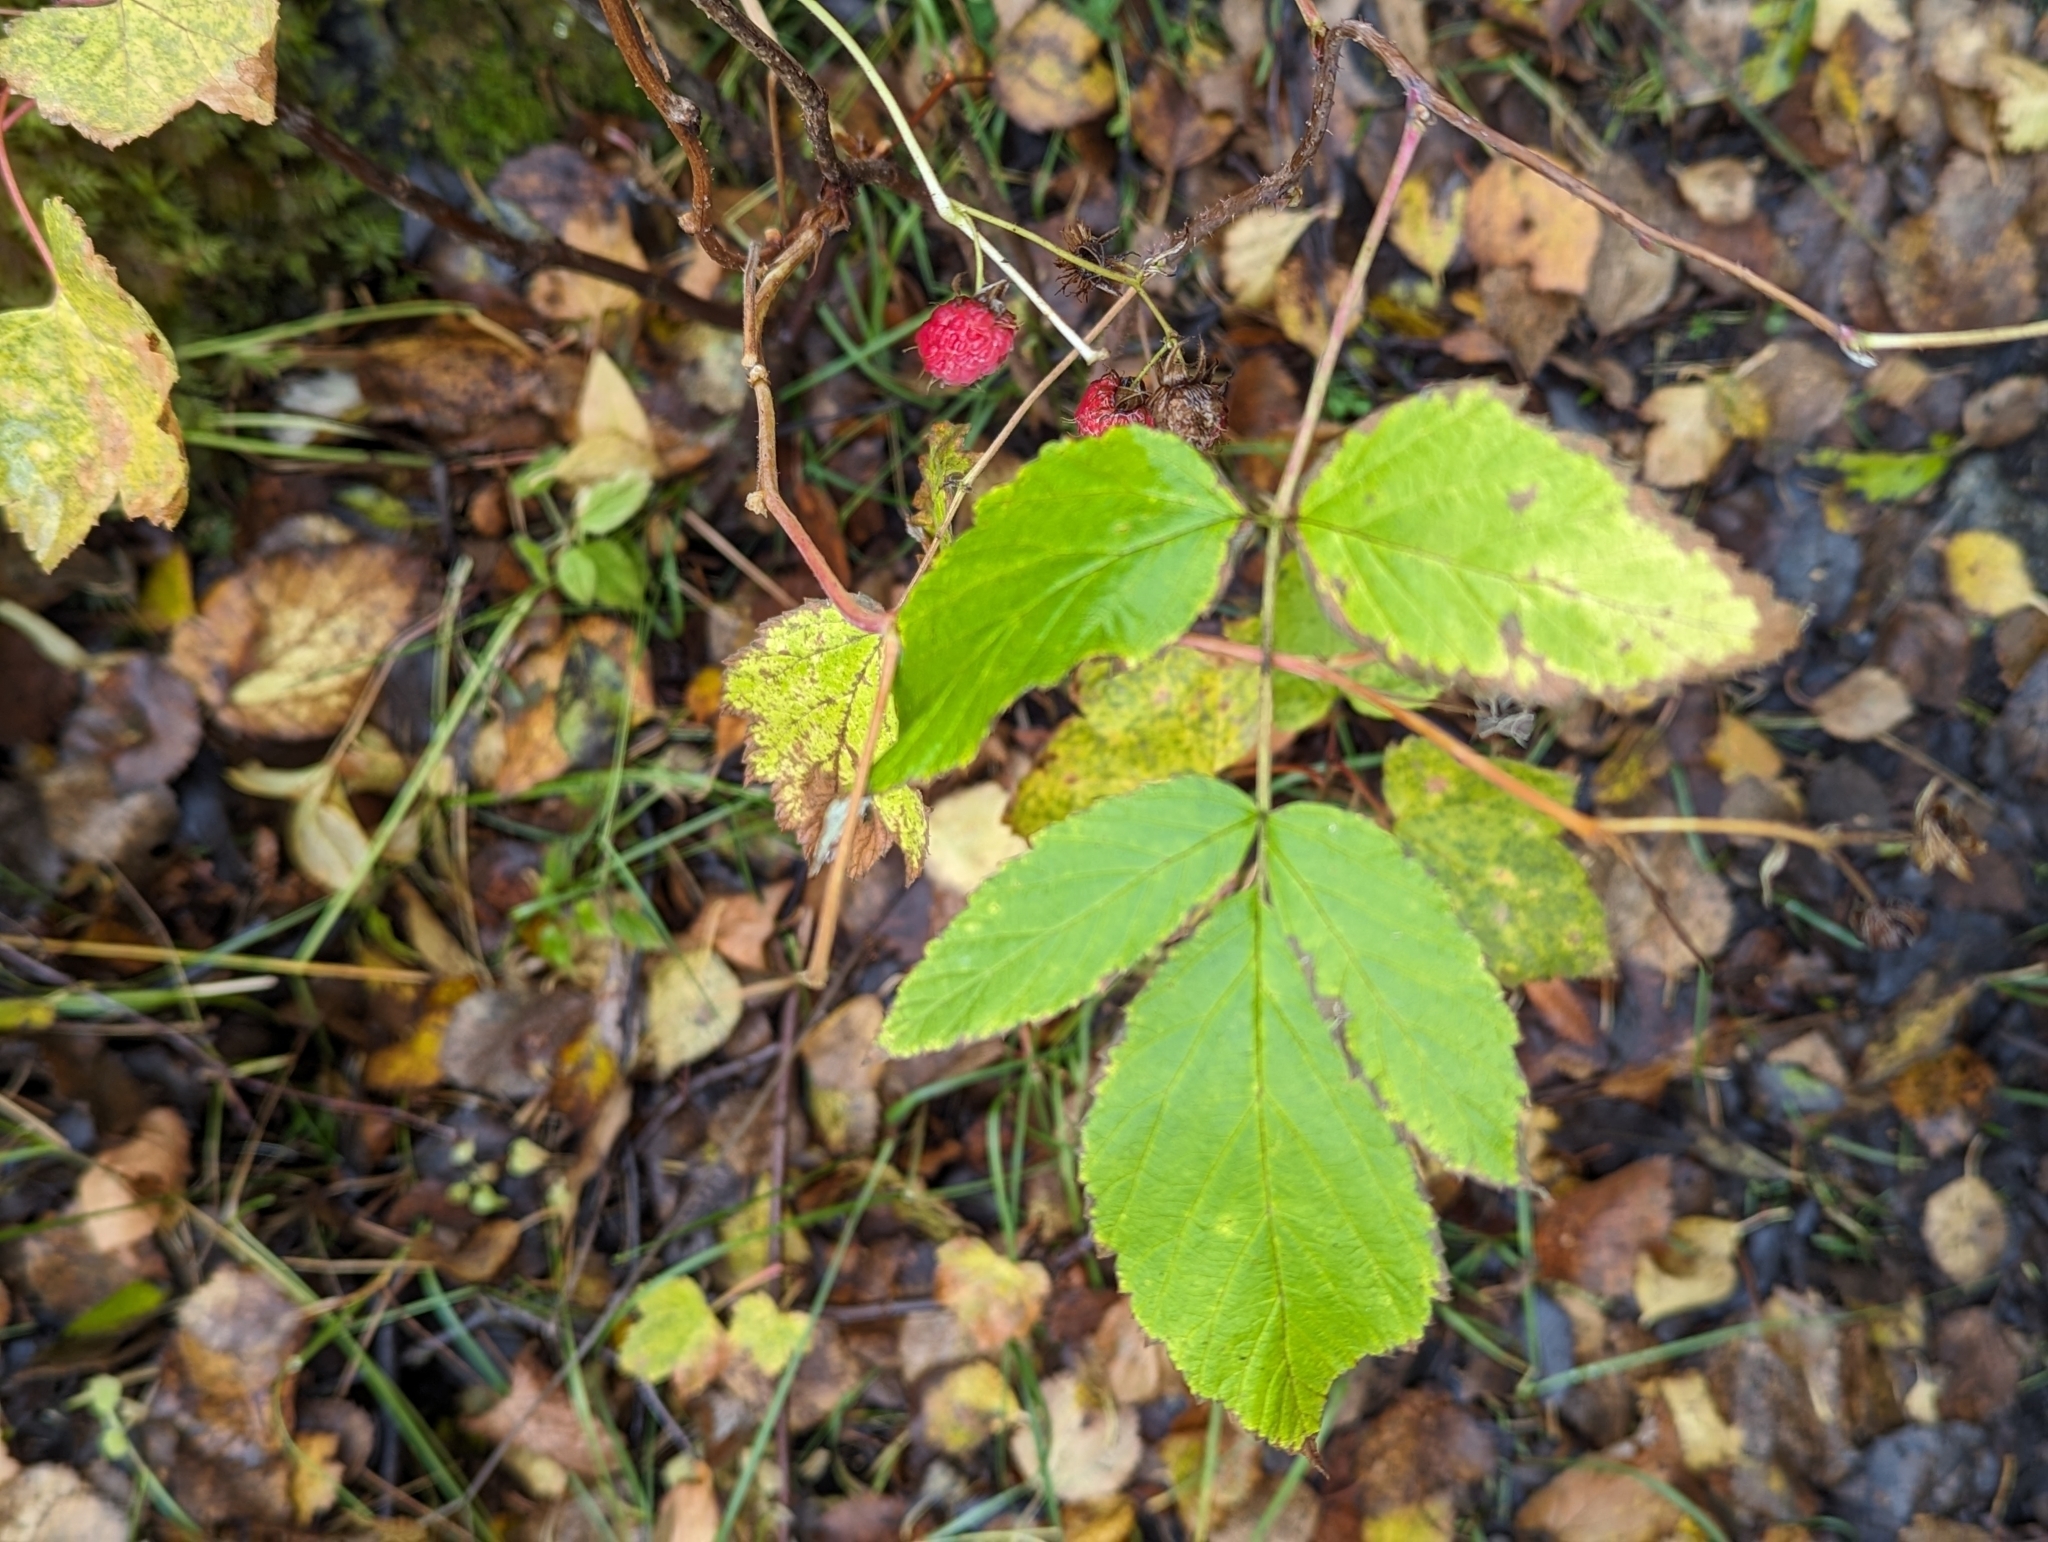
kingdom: Plantae
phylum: Tracheophyta
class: Magnoliopsida
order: Rosales
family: Rosaceae
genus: Rubus
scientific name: Rubus idaeus
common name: Raspberry
